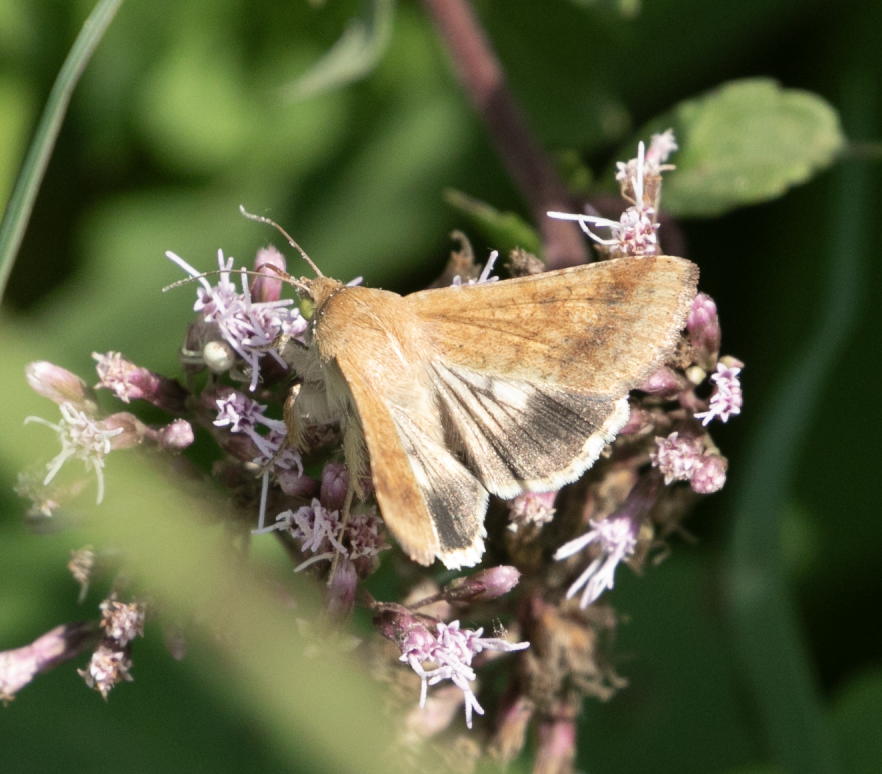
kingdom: Animalia
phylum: Arthropoda
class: Insecta
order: Lepidoptera
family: Noctuidae
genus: Helicoverpa
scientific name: Helicoverpa armigera
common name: Cotton bollworm
